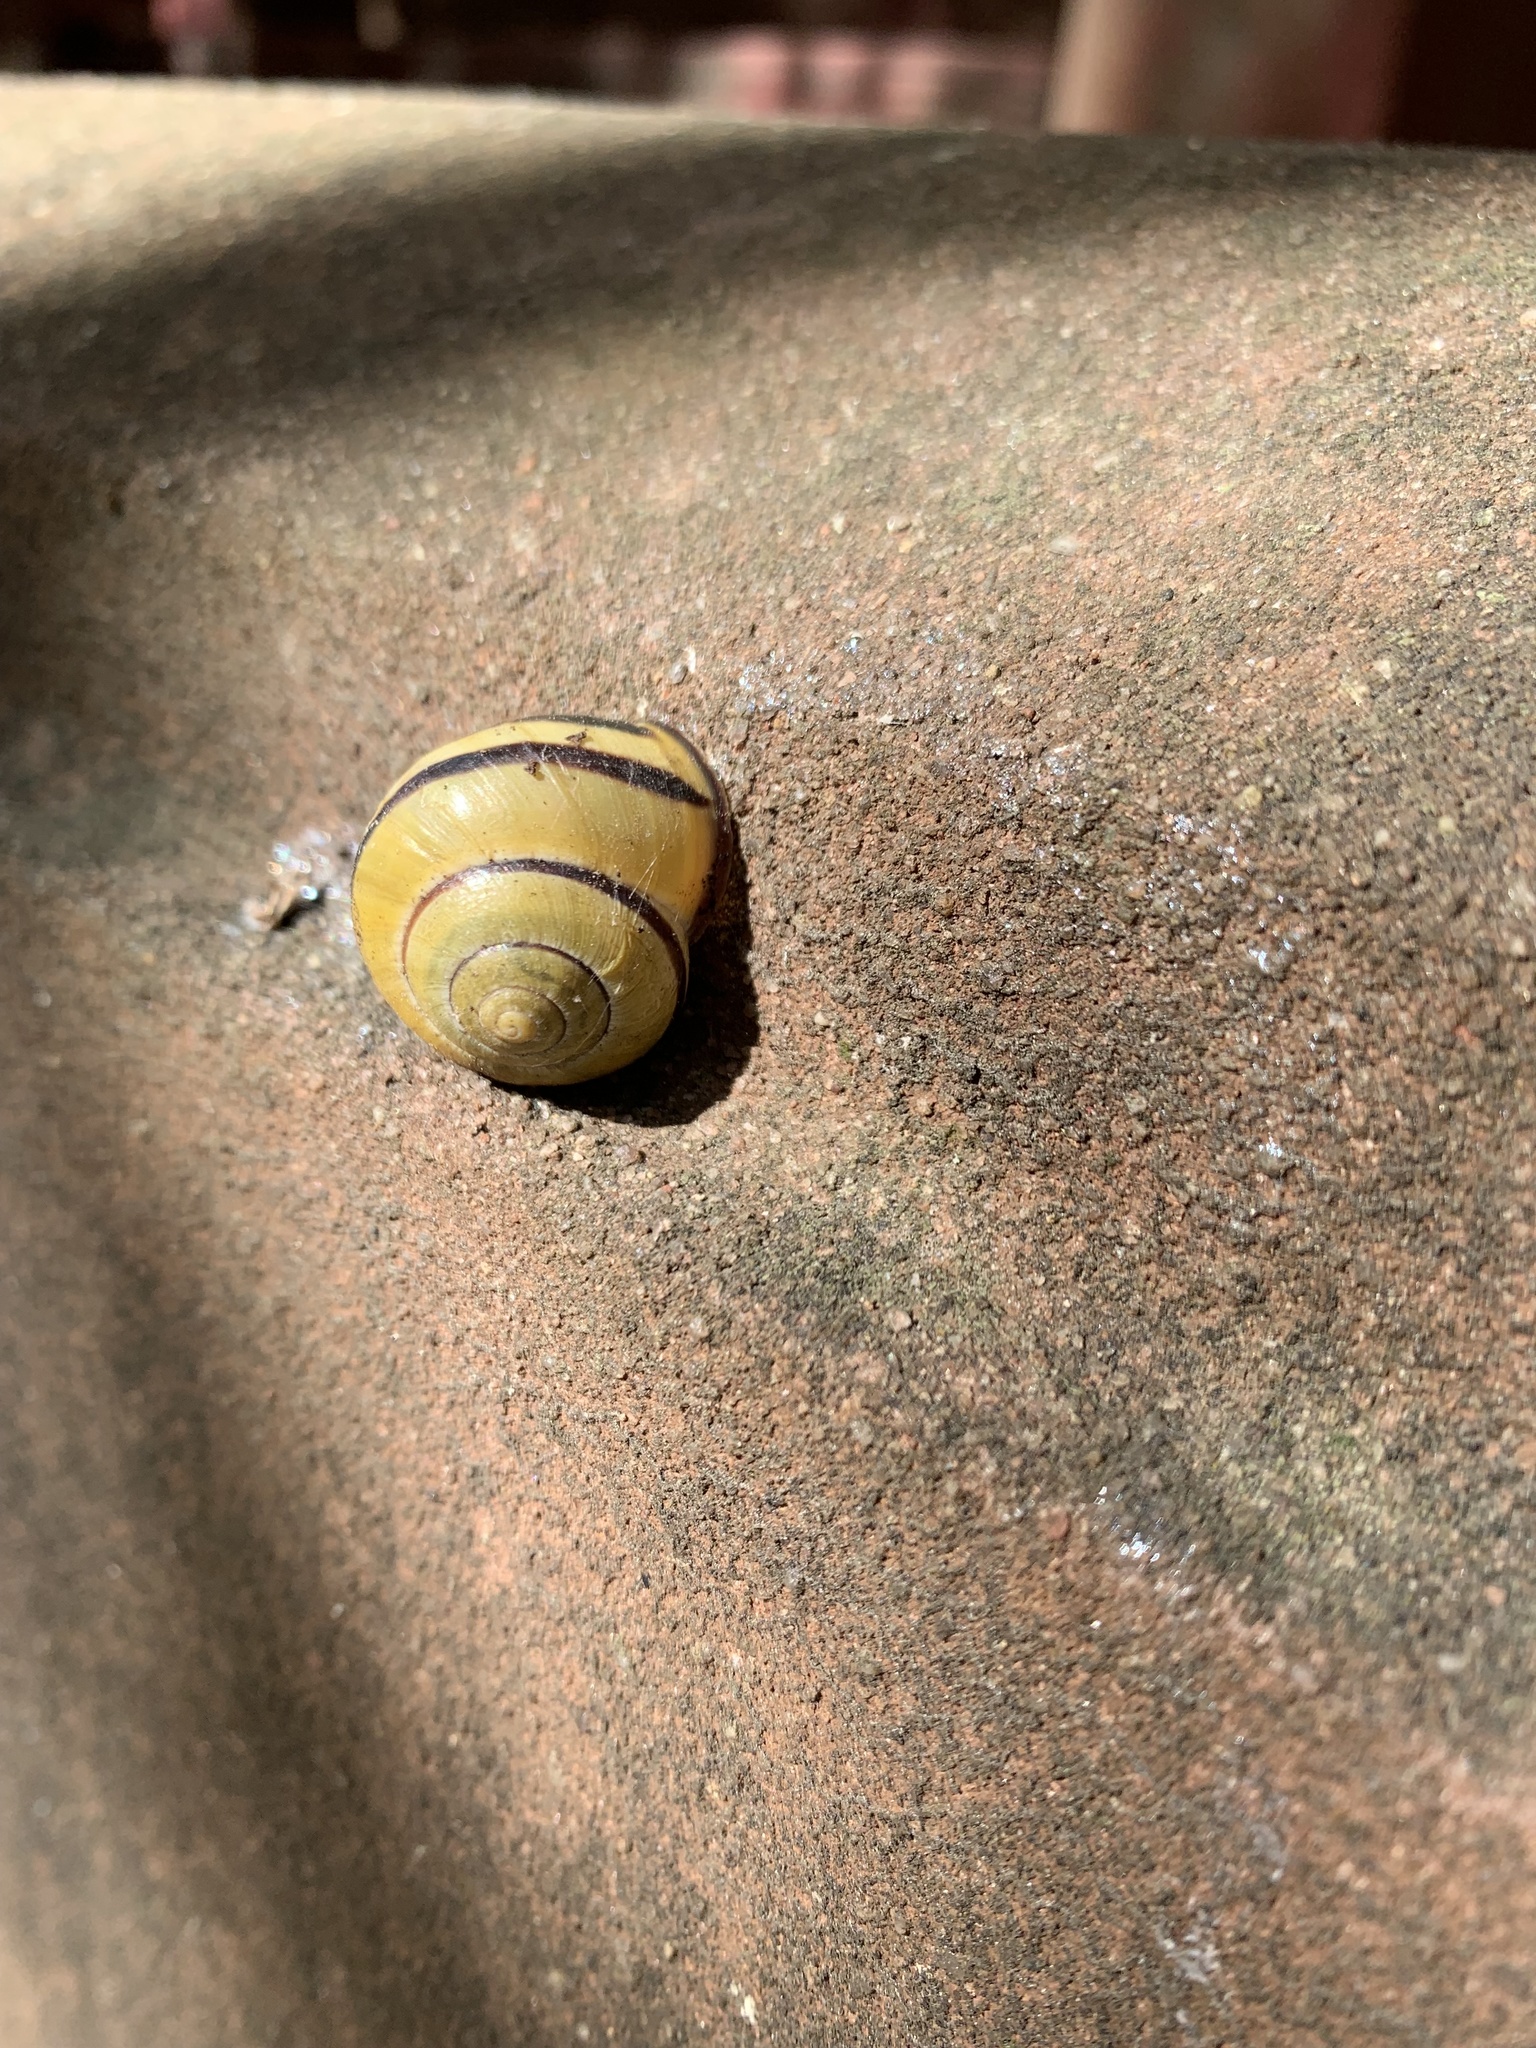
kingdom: Animalia
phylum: Mollusca
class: Gastropoda
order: Stylommatophora
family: Helicidae
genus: Cepaea
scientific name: Cepaea nemoralis
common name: Grovesnail
